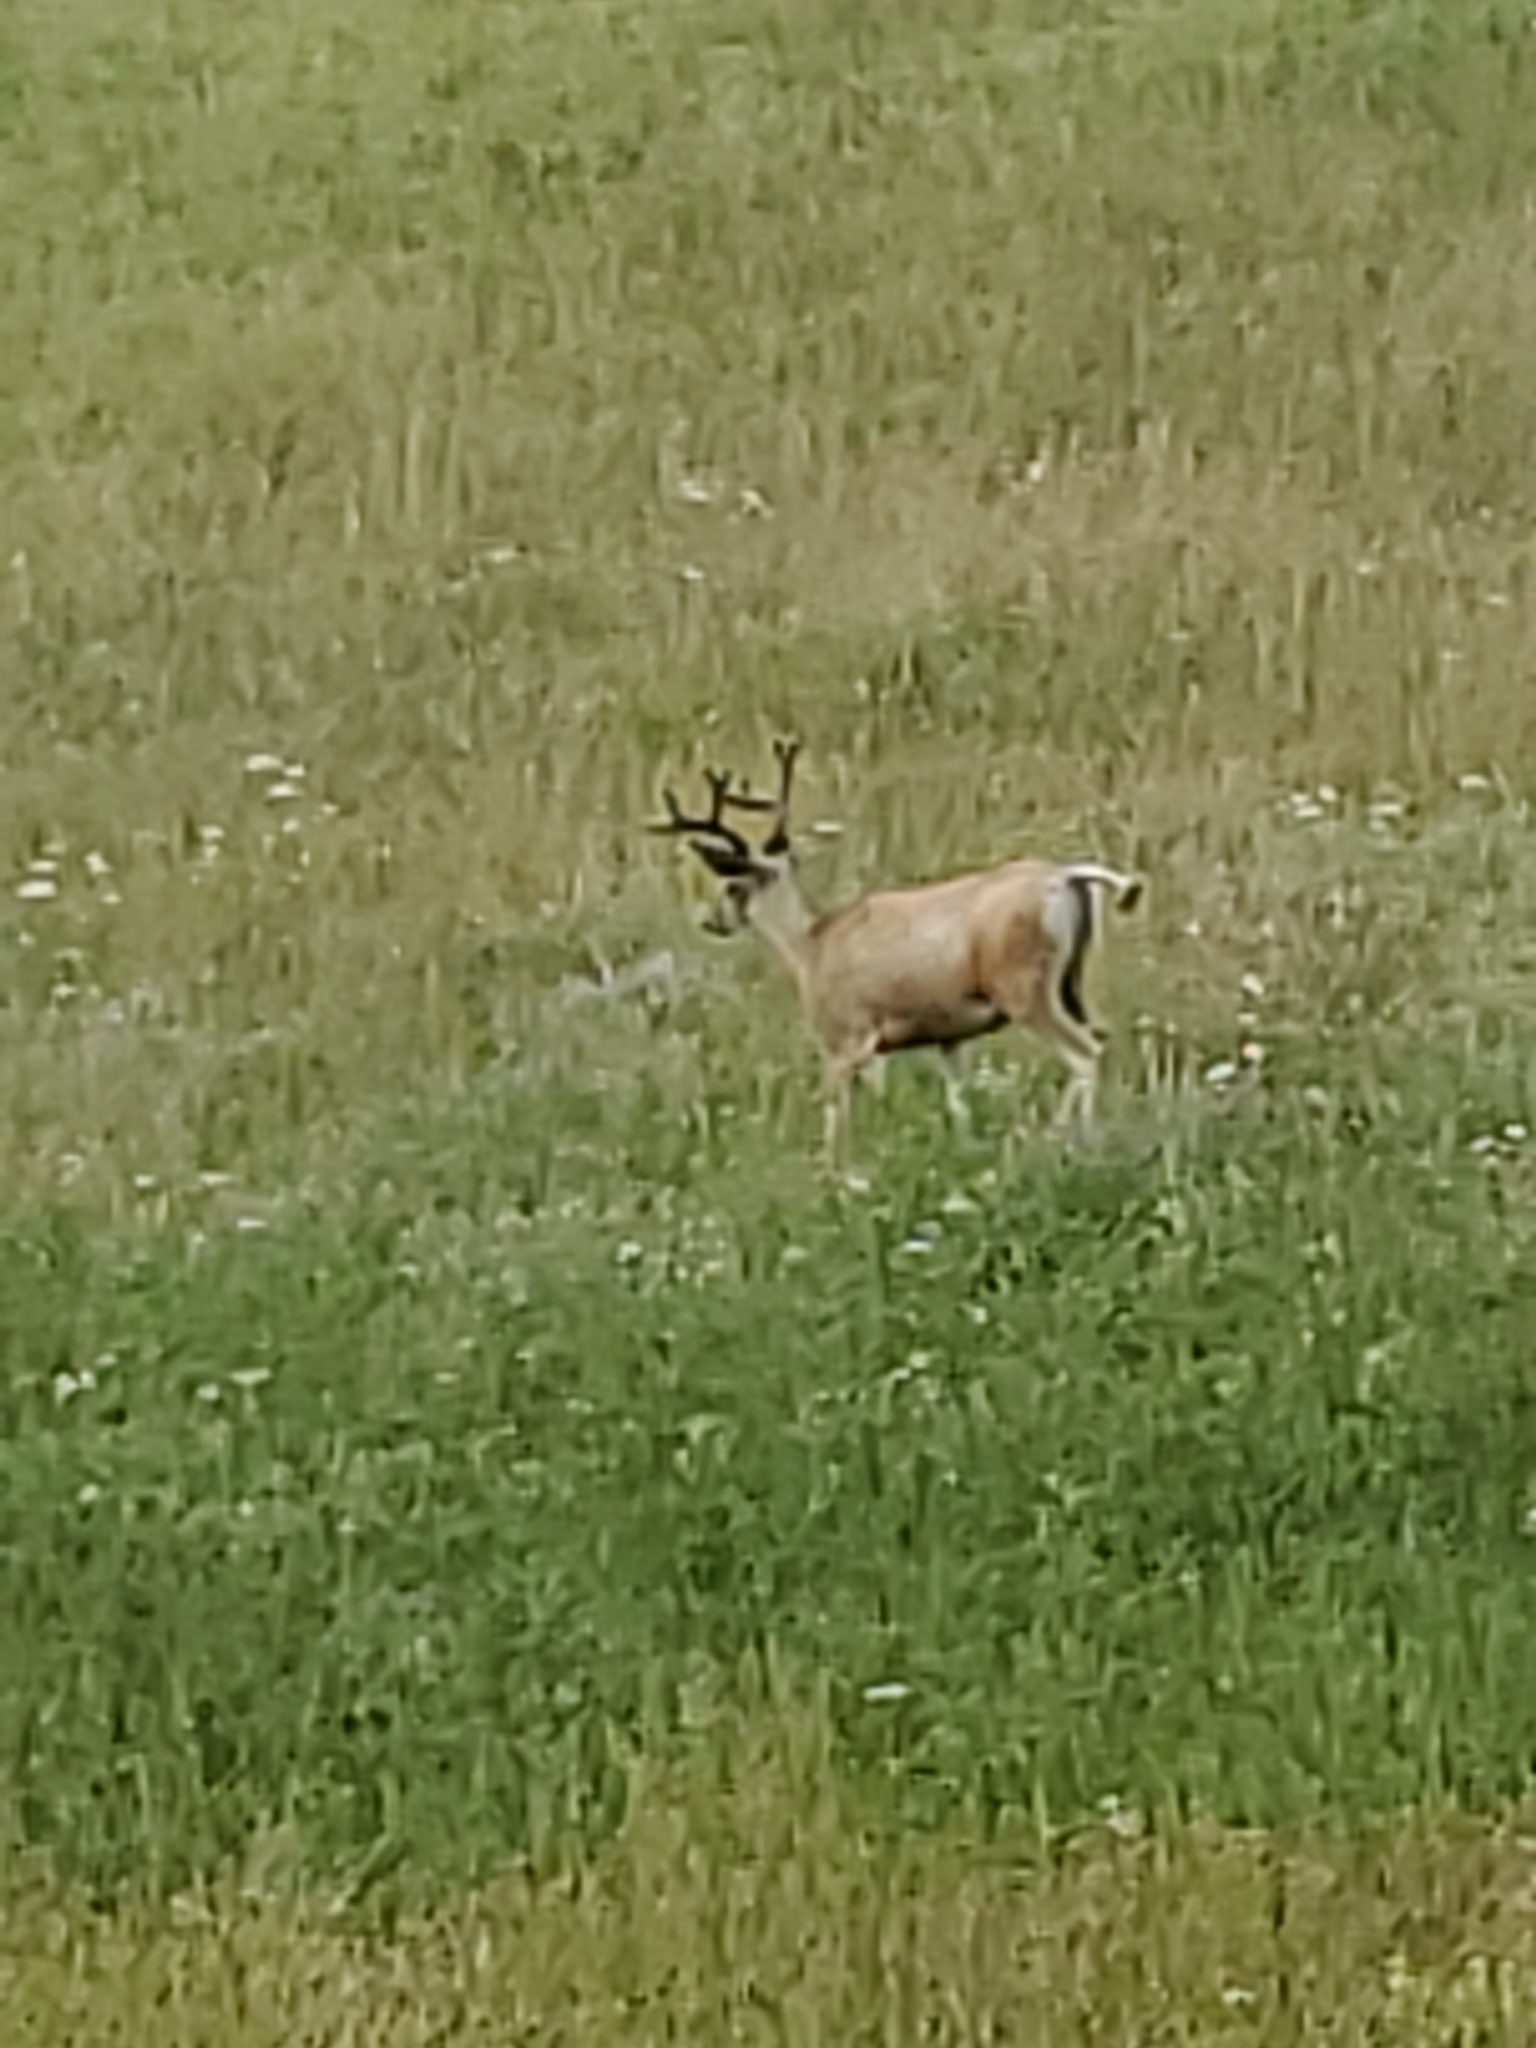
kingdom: Animalia
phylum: Chordata
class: Mammalia
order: Artiodactyla
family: Cervidae
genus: Odocoileus
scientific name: Odocoileus hemionus
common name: Mule deer
